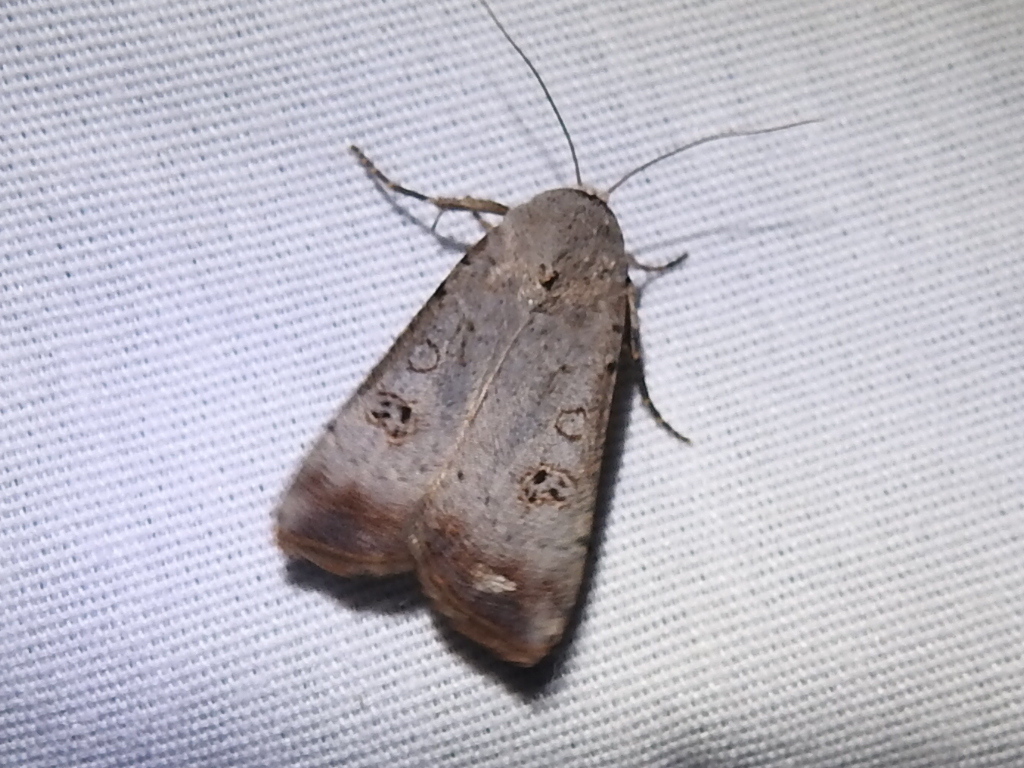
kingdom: Animalia
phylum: Arthropoda
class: Insecta
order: Lepidoptera
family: Noctuidae
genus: Anicla
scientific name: Anicla infecta
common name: Green cutworm
